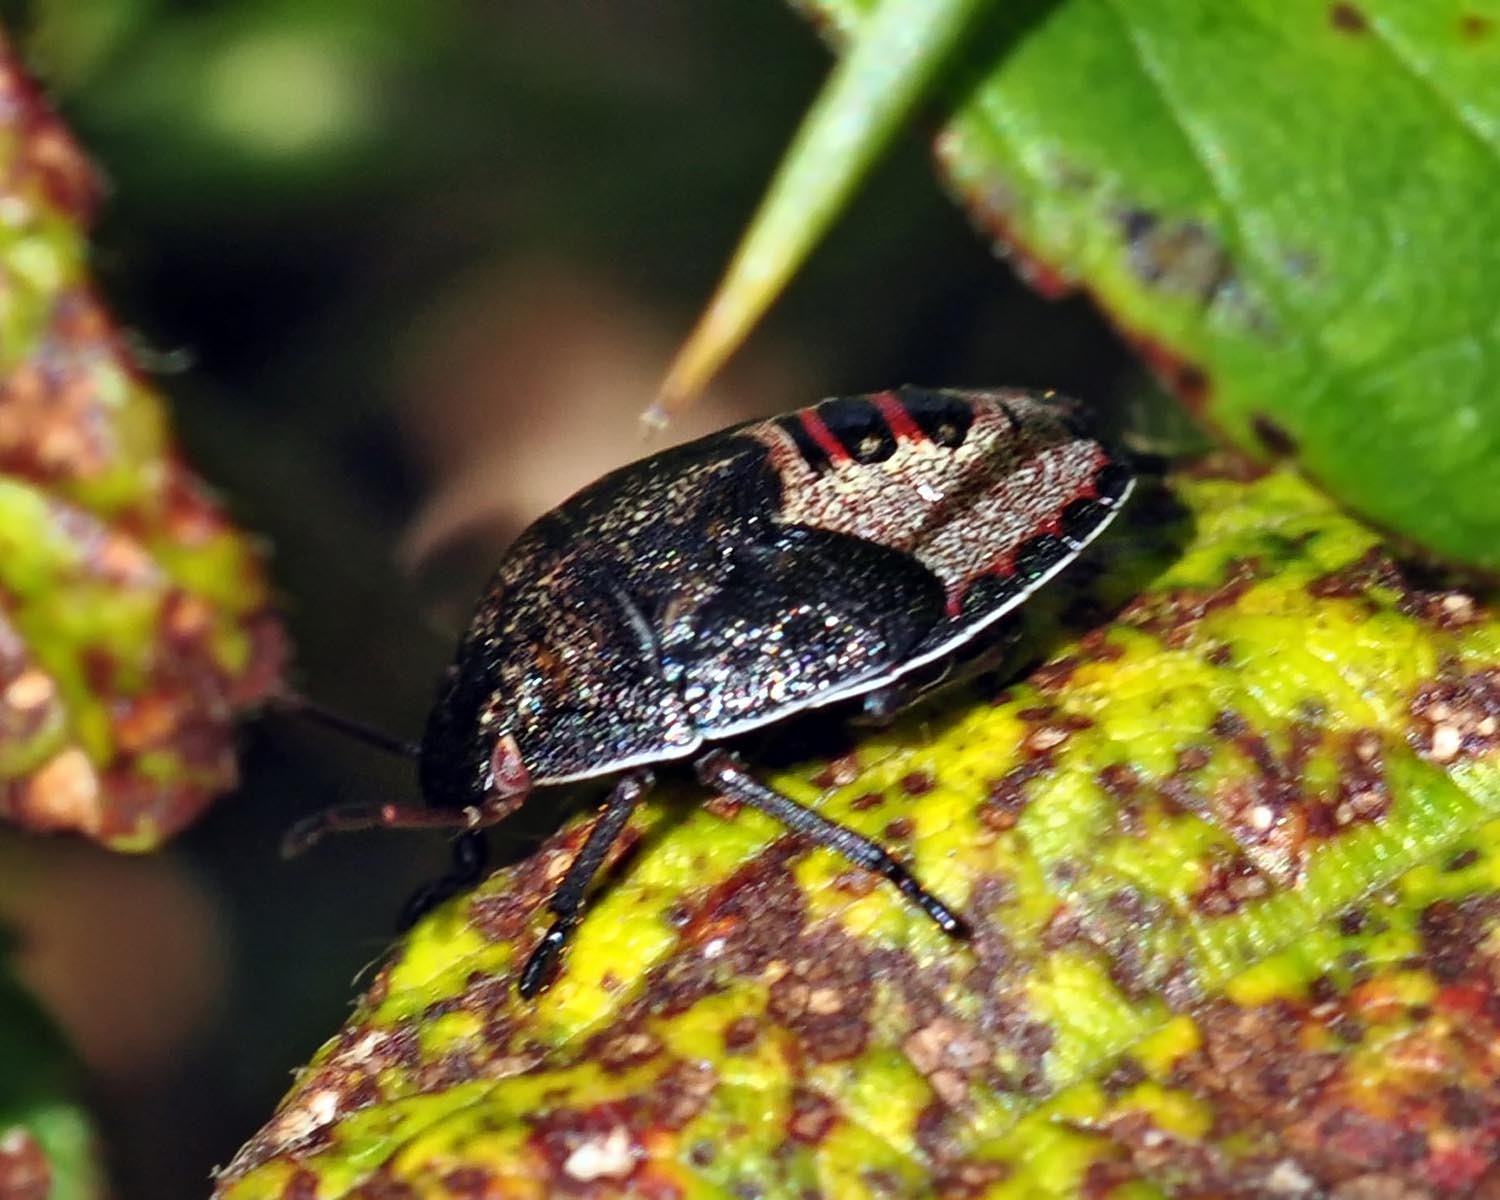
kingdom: Animalia
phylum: Arthropoda
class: Insecta
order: Hemiptera
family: Pentatomidae
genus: Piezodorus
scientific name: Piezodorus lituratus
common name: Stink bug
